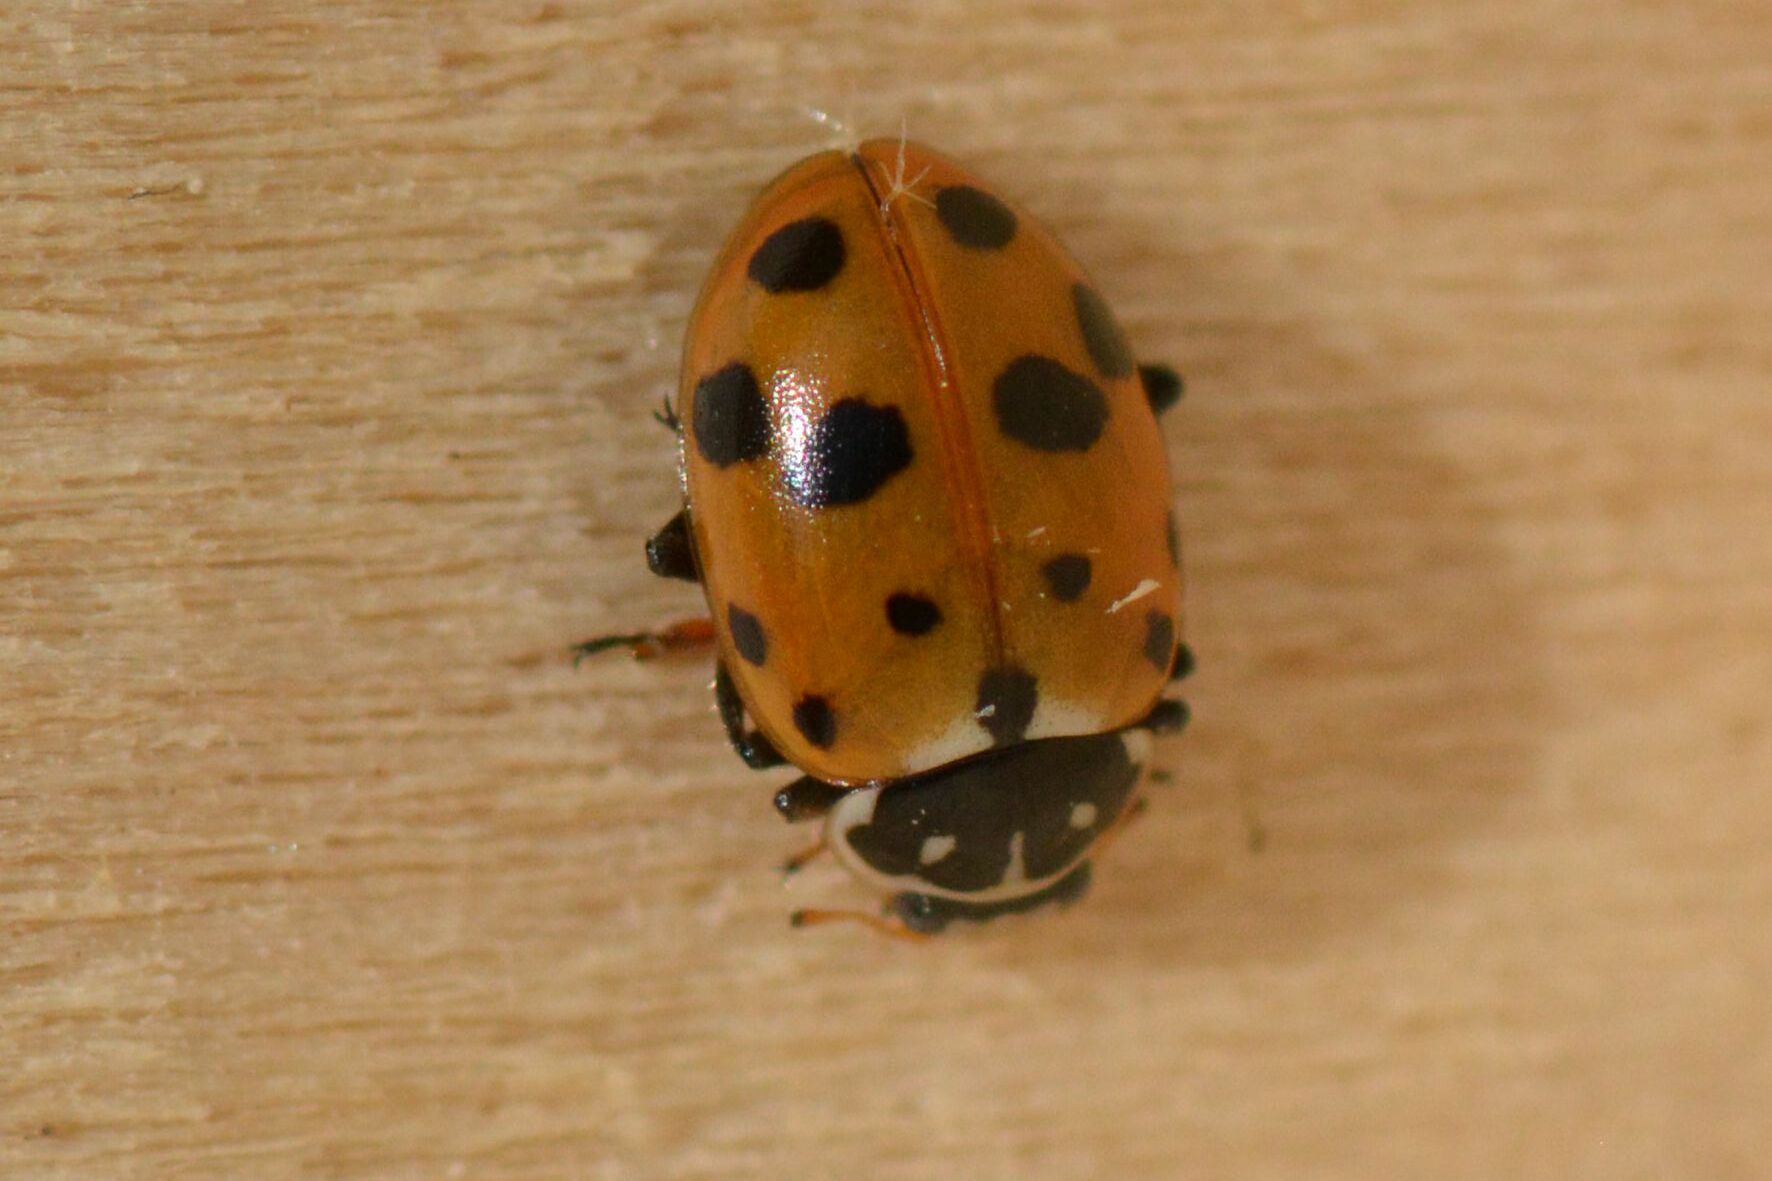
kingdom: Animalia
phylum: Arthropoda
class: Insecta
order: Coleoptera
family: Coccinellidae
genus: Hippodamia
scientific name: Hippodamia variegata
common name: Ladybird beetle
